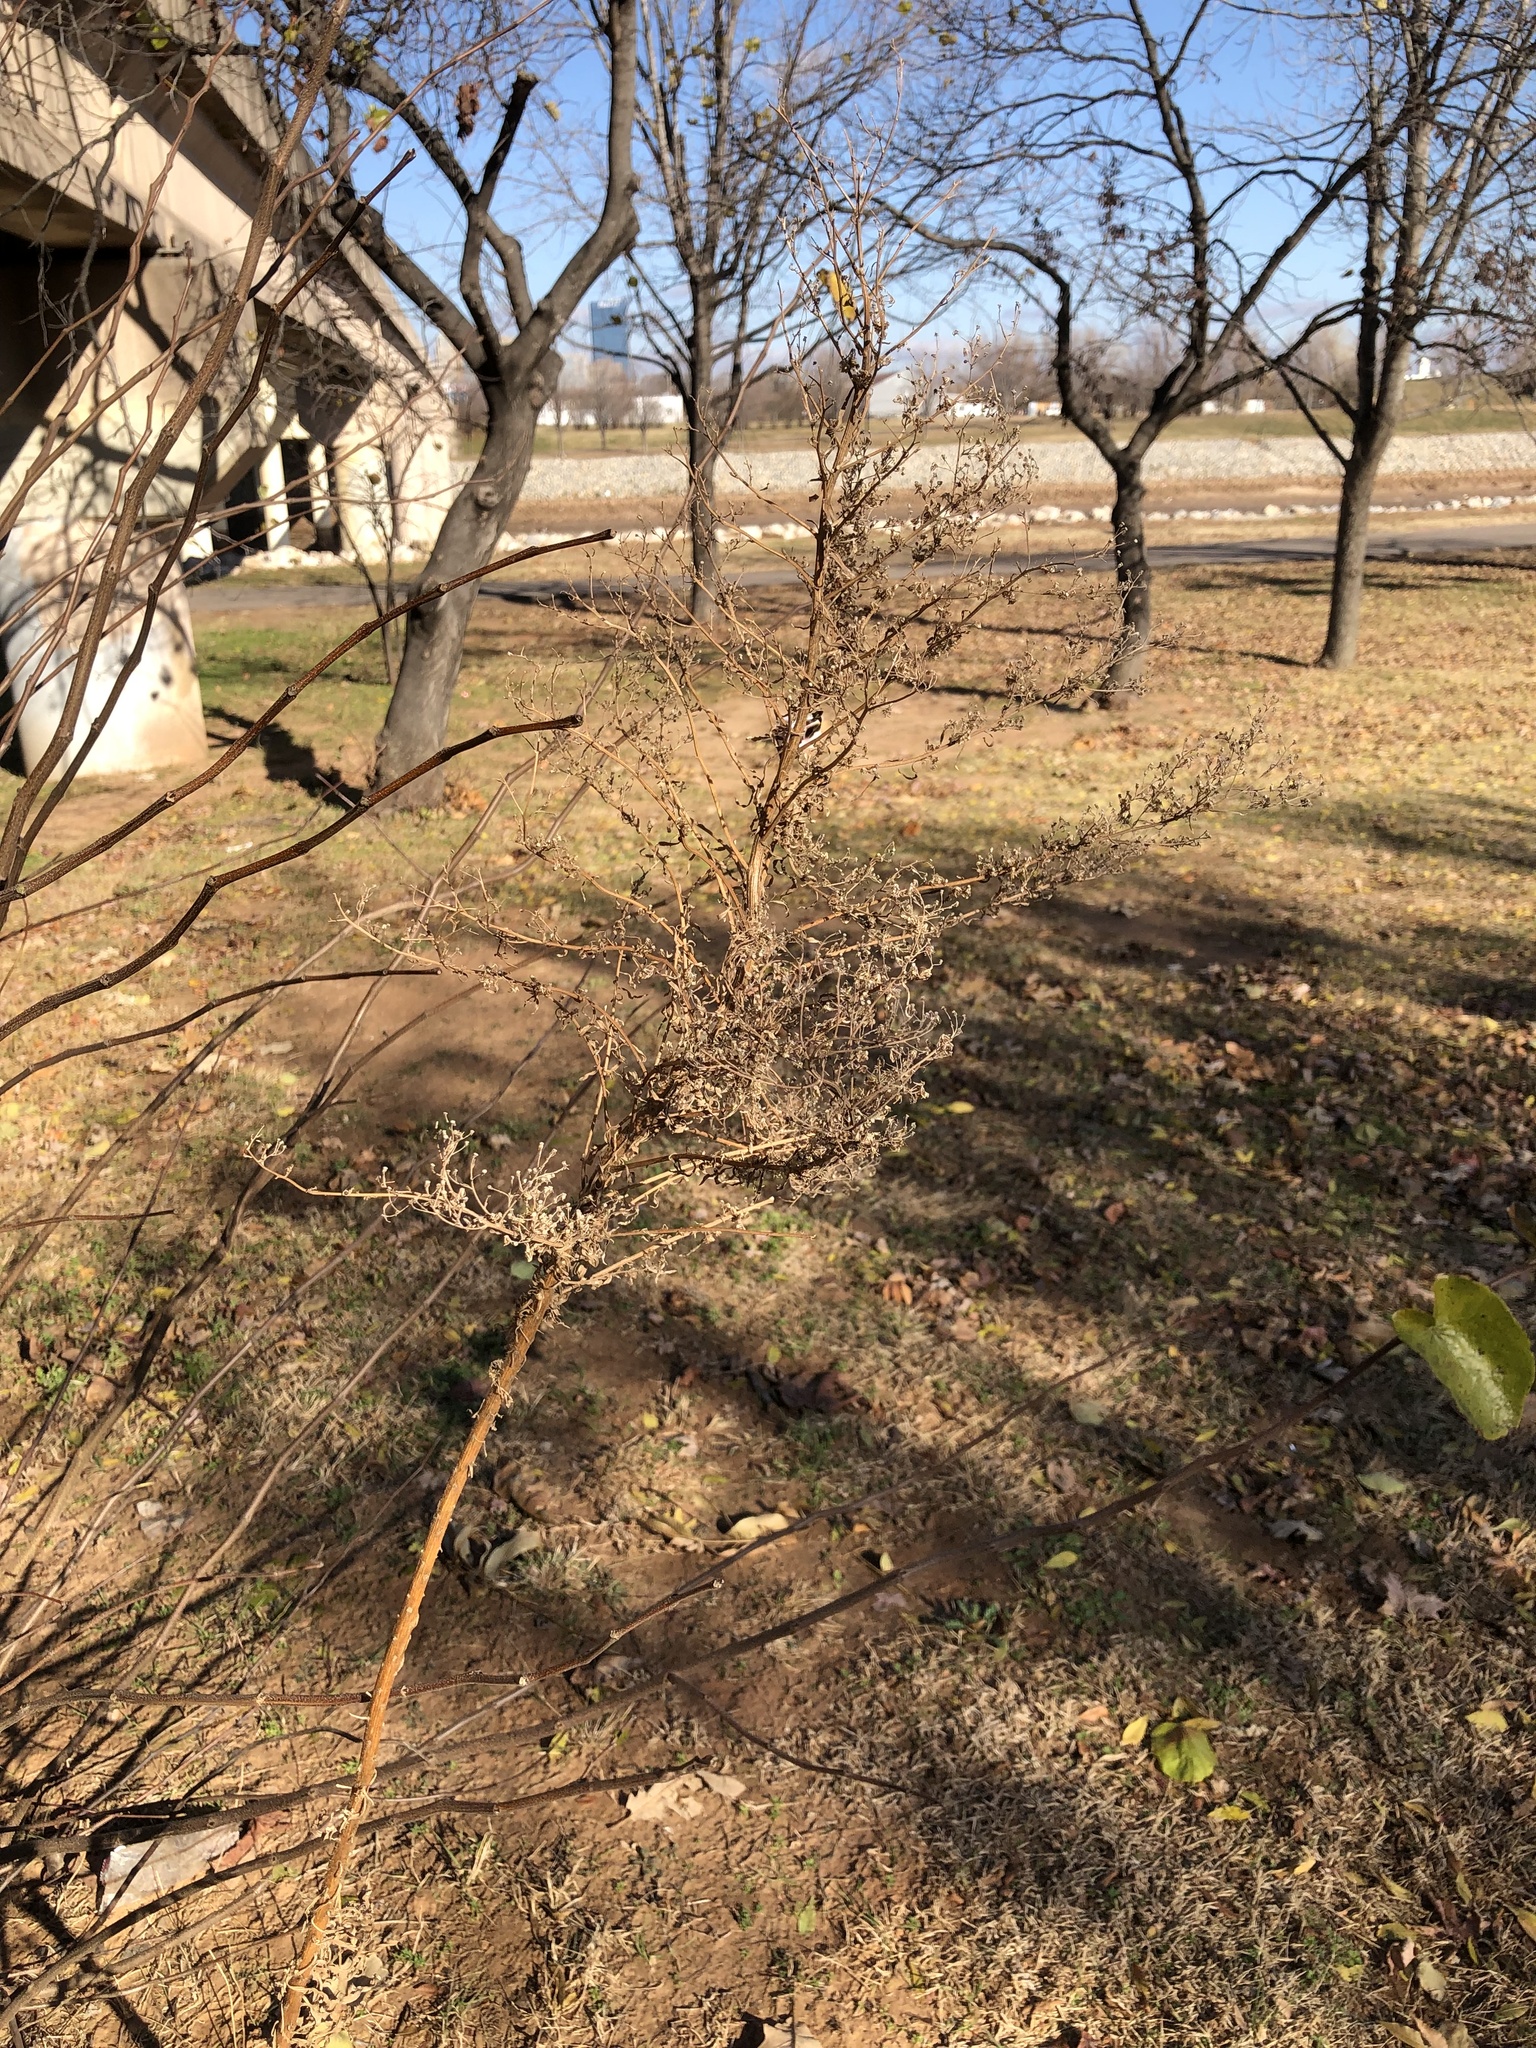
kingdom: Plantae
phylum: Tracheophyta
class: Magnoliopsida
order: Asterales
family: Asteraceae
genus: Erigeron
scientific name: Erigeron canadensis
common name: Canadian fleabane
